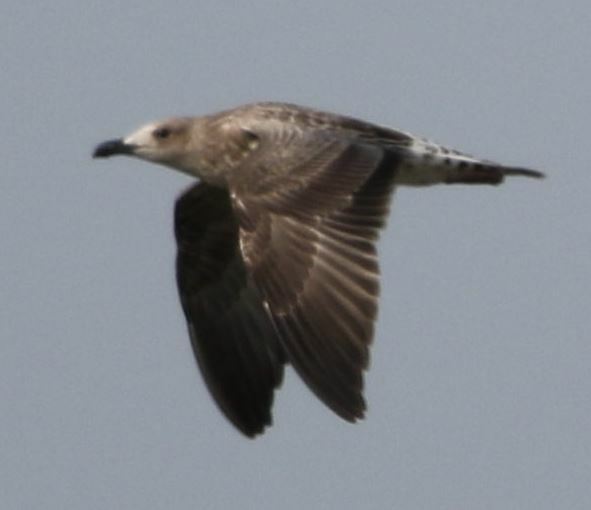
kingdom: Animalia
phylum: Chordata
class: Aves
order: Charadriiformes
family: Laridae
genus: Larus
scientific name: Larus michahellis
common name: Yellow-legged gull
